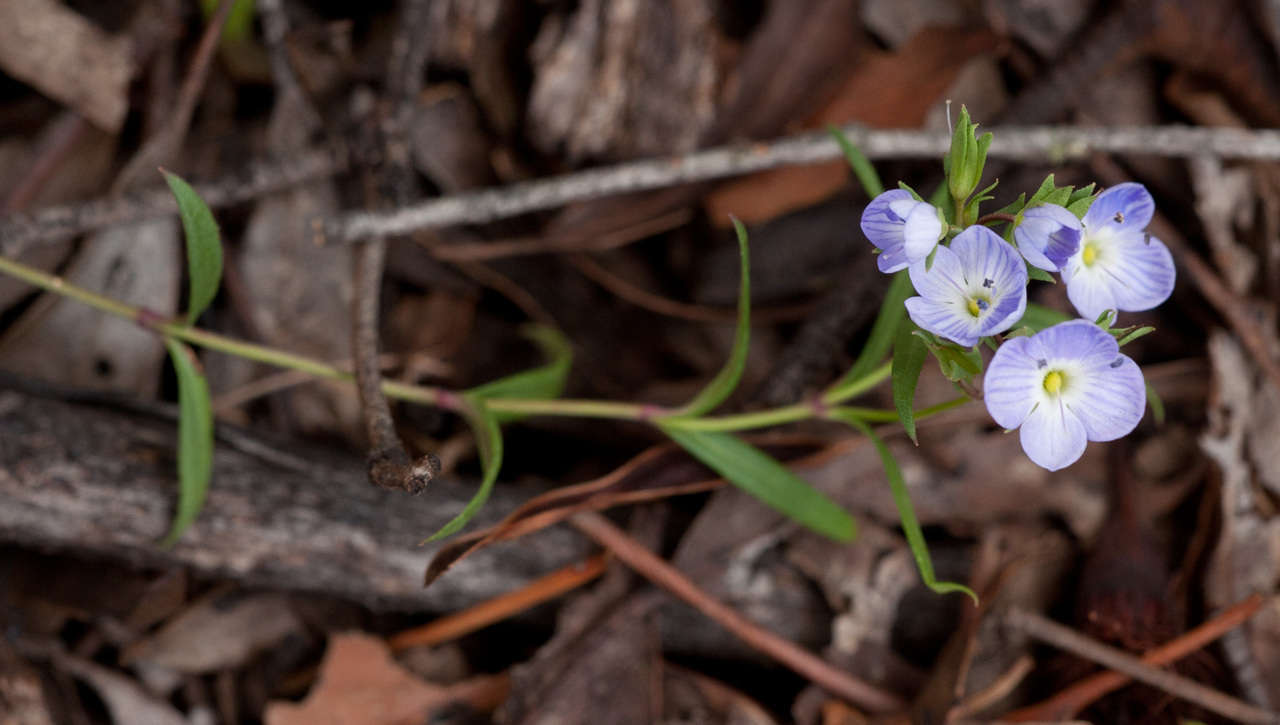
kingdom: Plantae
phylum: Tracheophyta
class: Magnoliopsida
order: Lamiales
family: Plantaginaceae
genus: Veronica
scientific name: Veronica gracilis
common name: Slender speedwell
